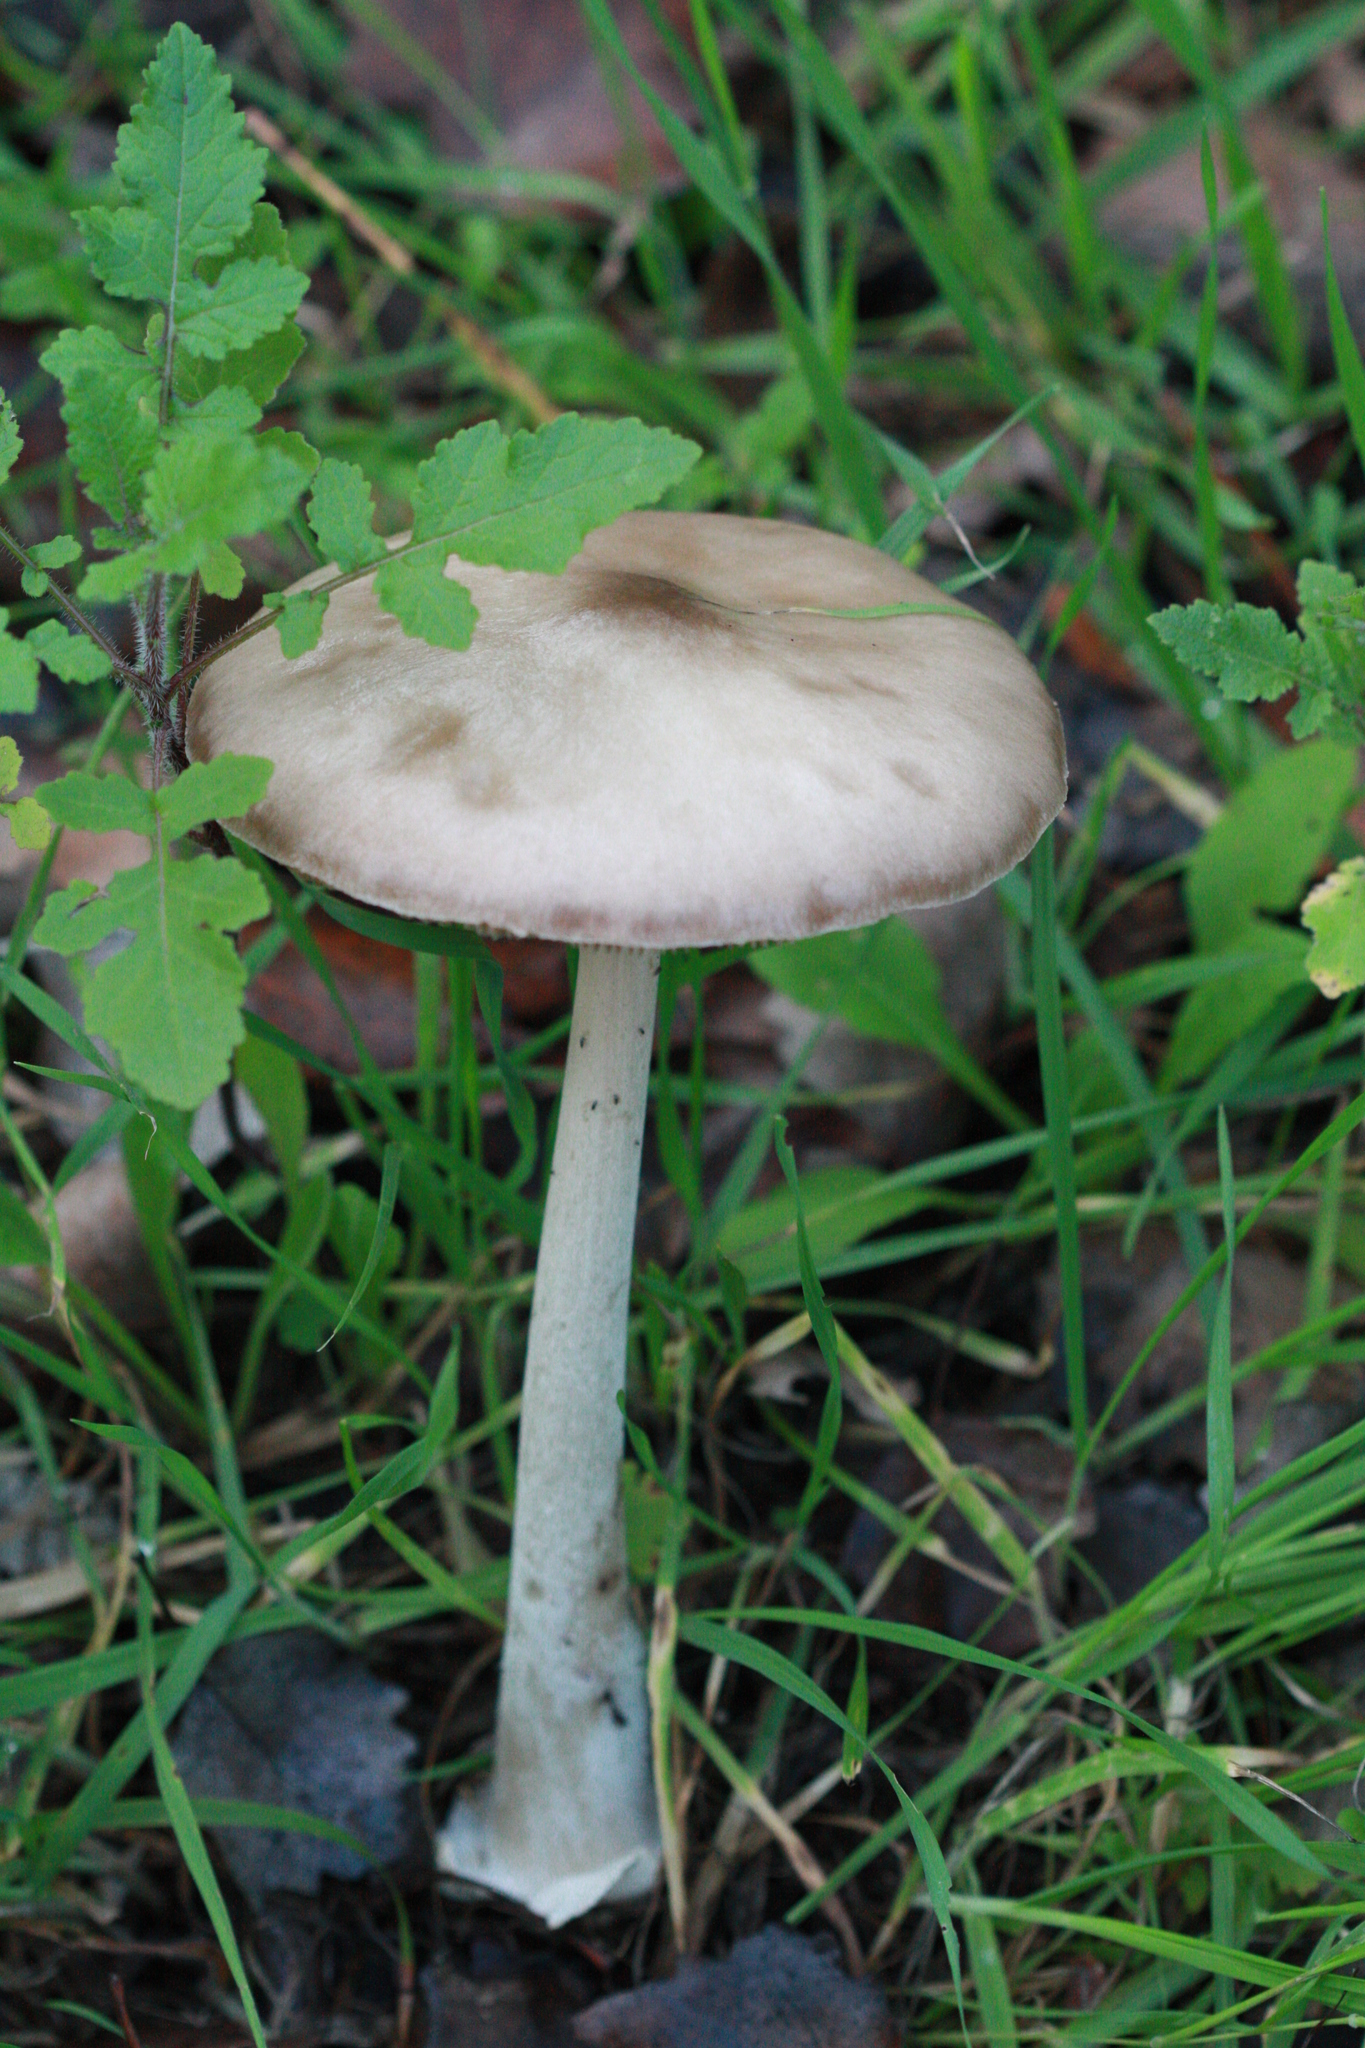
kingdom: Fungi
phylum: Basidiomycota
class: Agaricomycetes
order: Agaricales
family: Pluteaceae
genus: Volvopluteus
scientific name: Volvopluteus gloiocephalus
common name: Stubble rosegill
